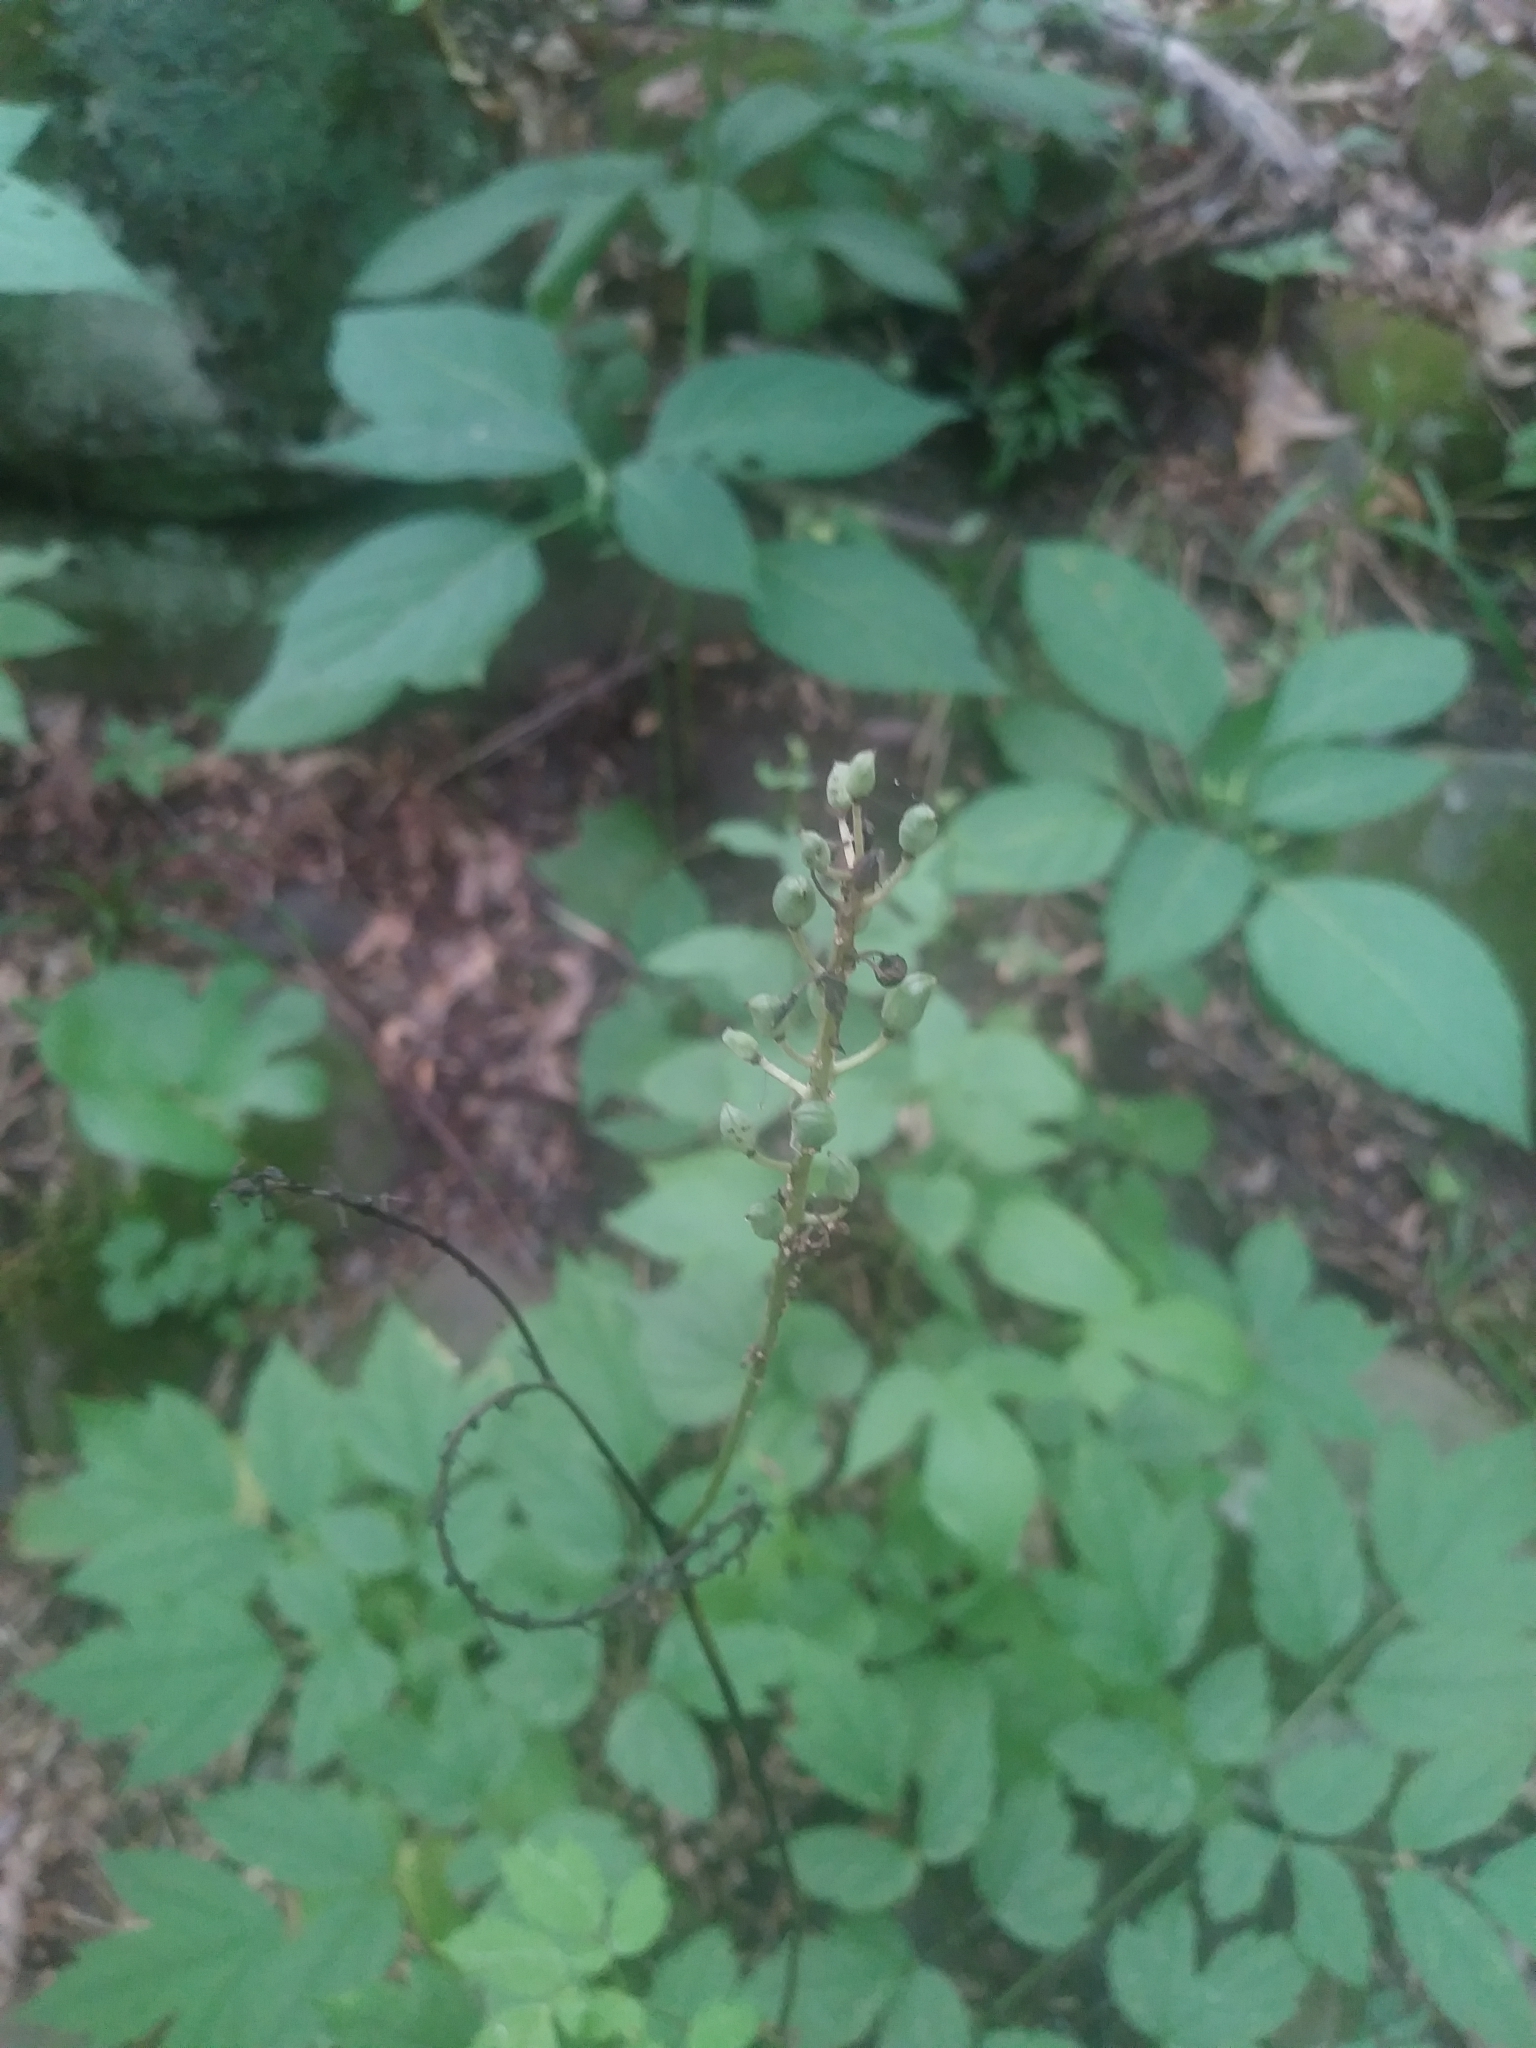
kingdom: Plantae
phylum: Tracheophyta
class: Magnoliopsida
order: Ranunculales
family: Ranunculaceae
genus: Actaea
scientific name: Actaea racemosa
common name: Black cohosh
